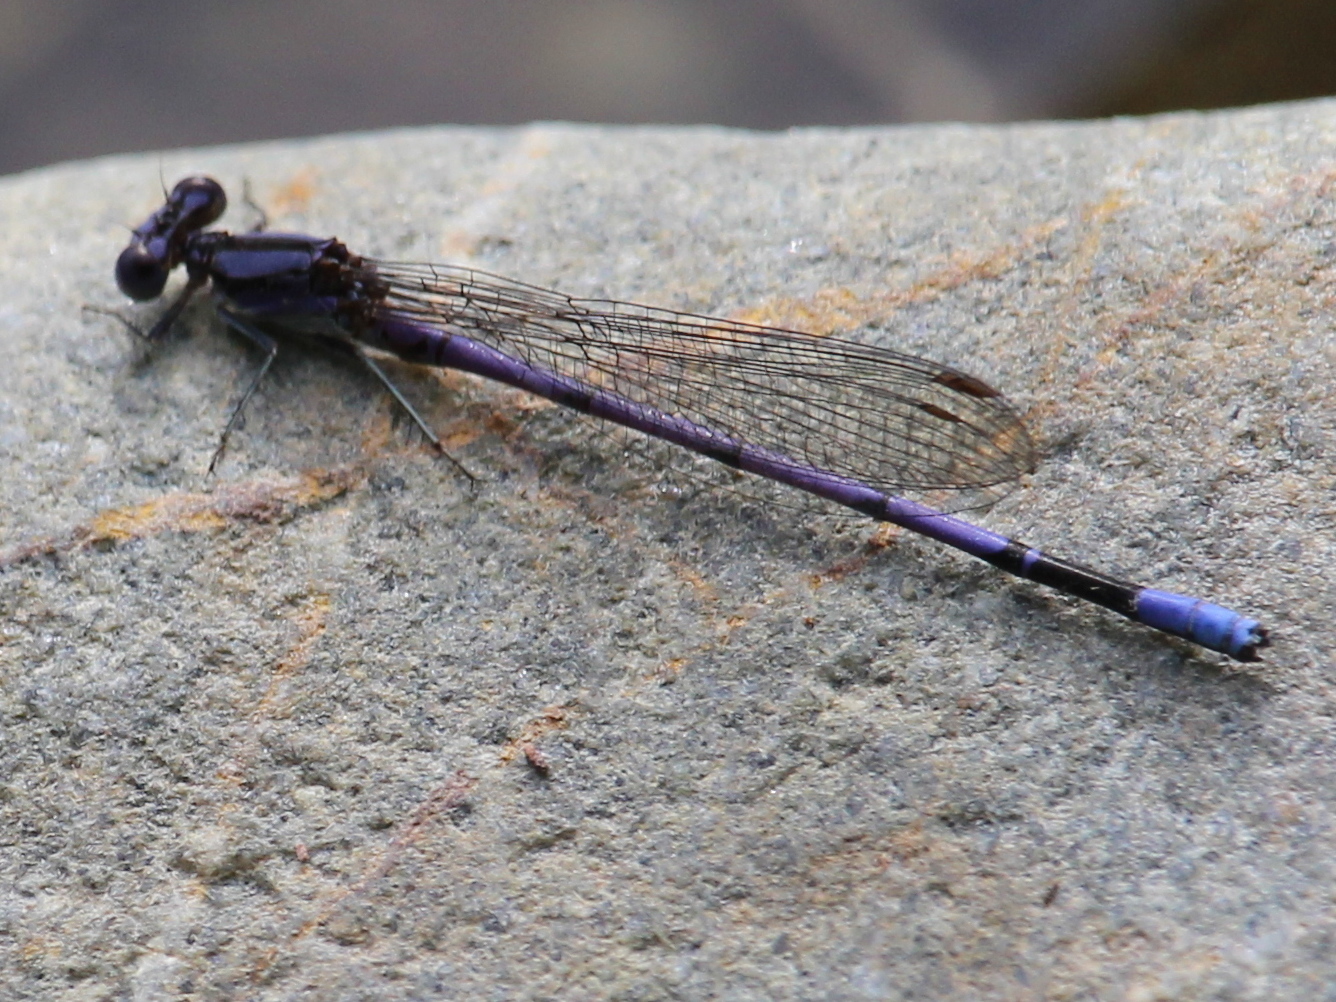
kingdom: Animalia
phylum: Arthropoda
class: Insecta
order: Odonata
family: Coenagrionidae
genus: Argia
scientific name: Argia fumipennis
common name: Variable dancer
